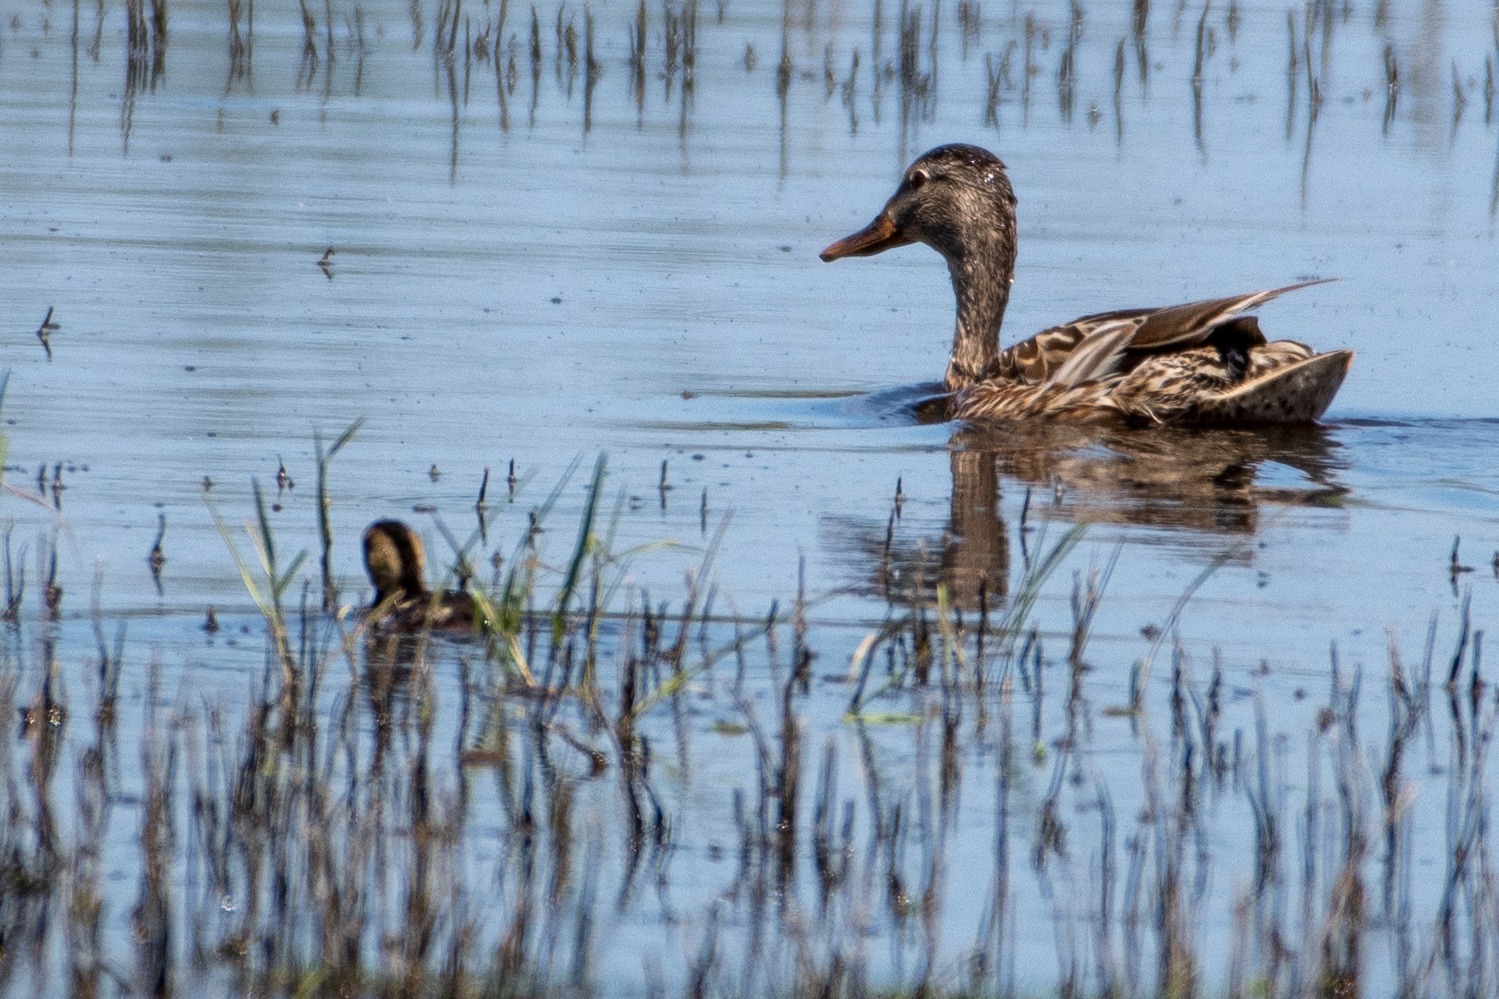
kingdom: Animalia
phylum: Chordata
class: Aves
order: Anseriformes
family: Anatidae
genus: Anas
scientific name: Anas platyrhynchos
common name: Mallard
